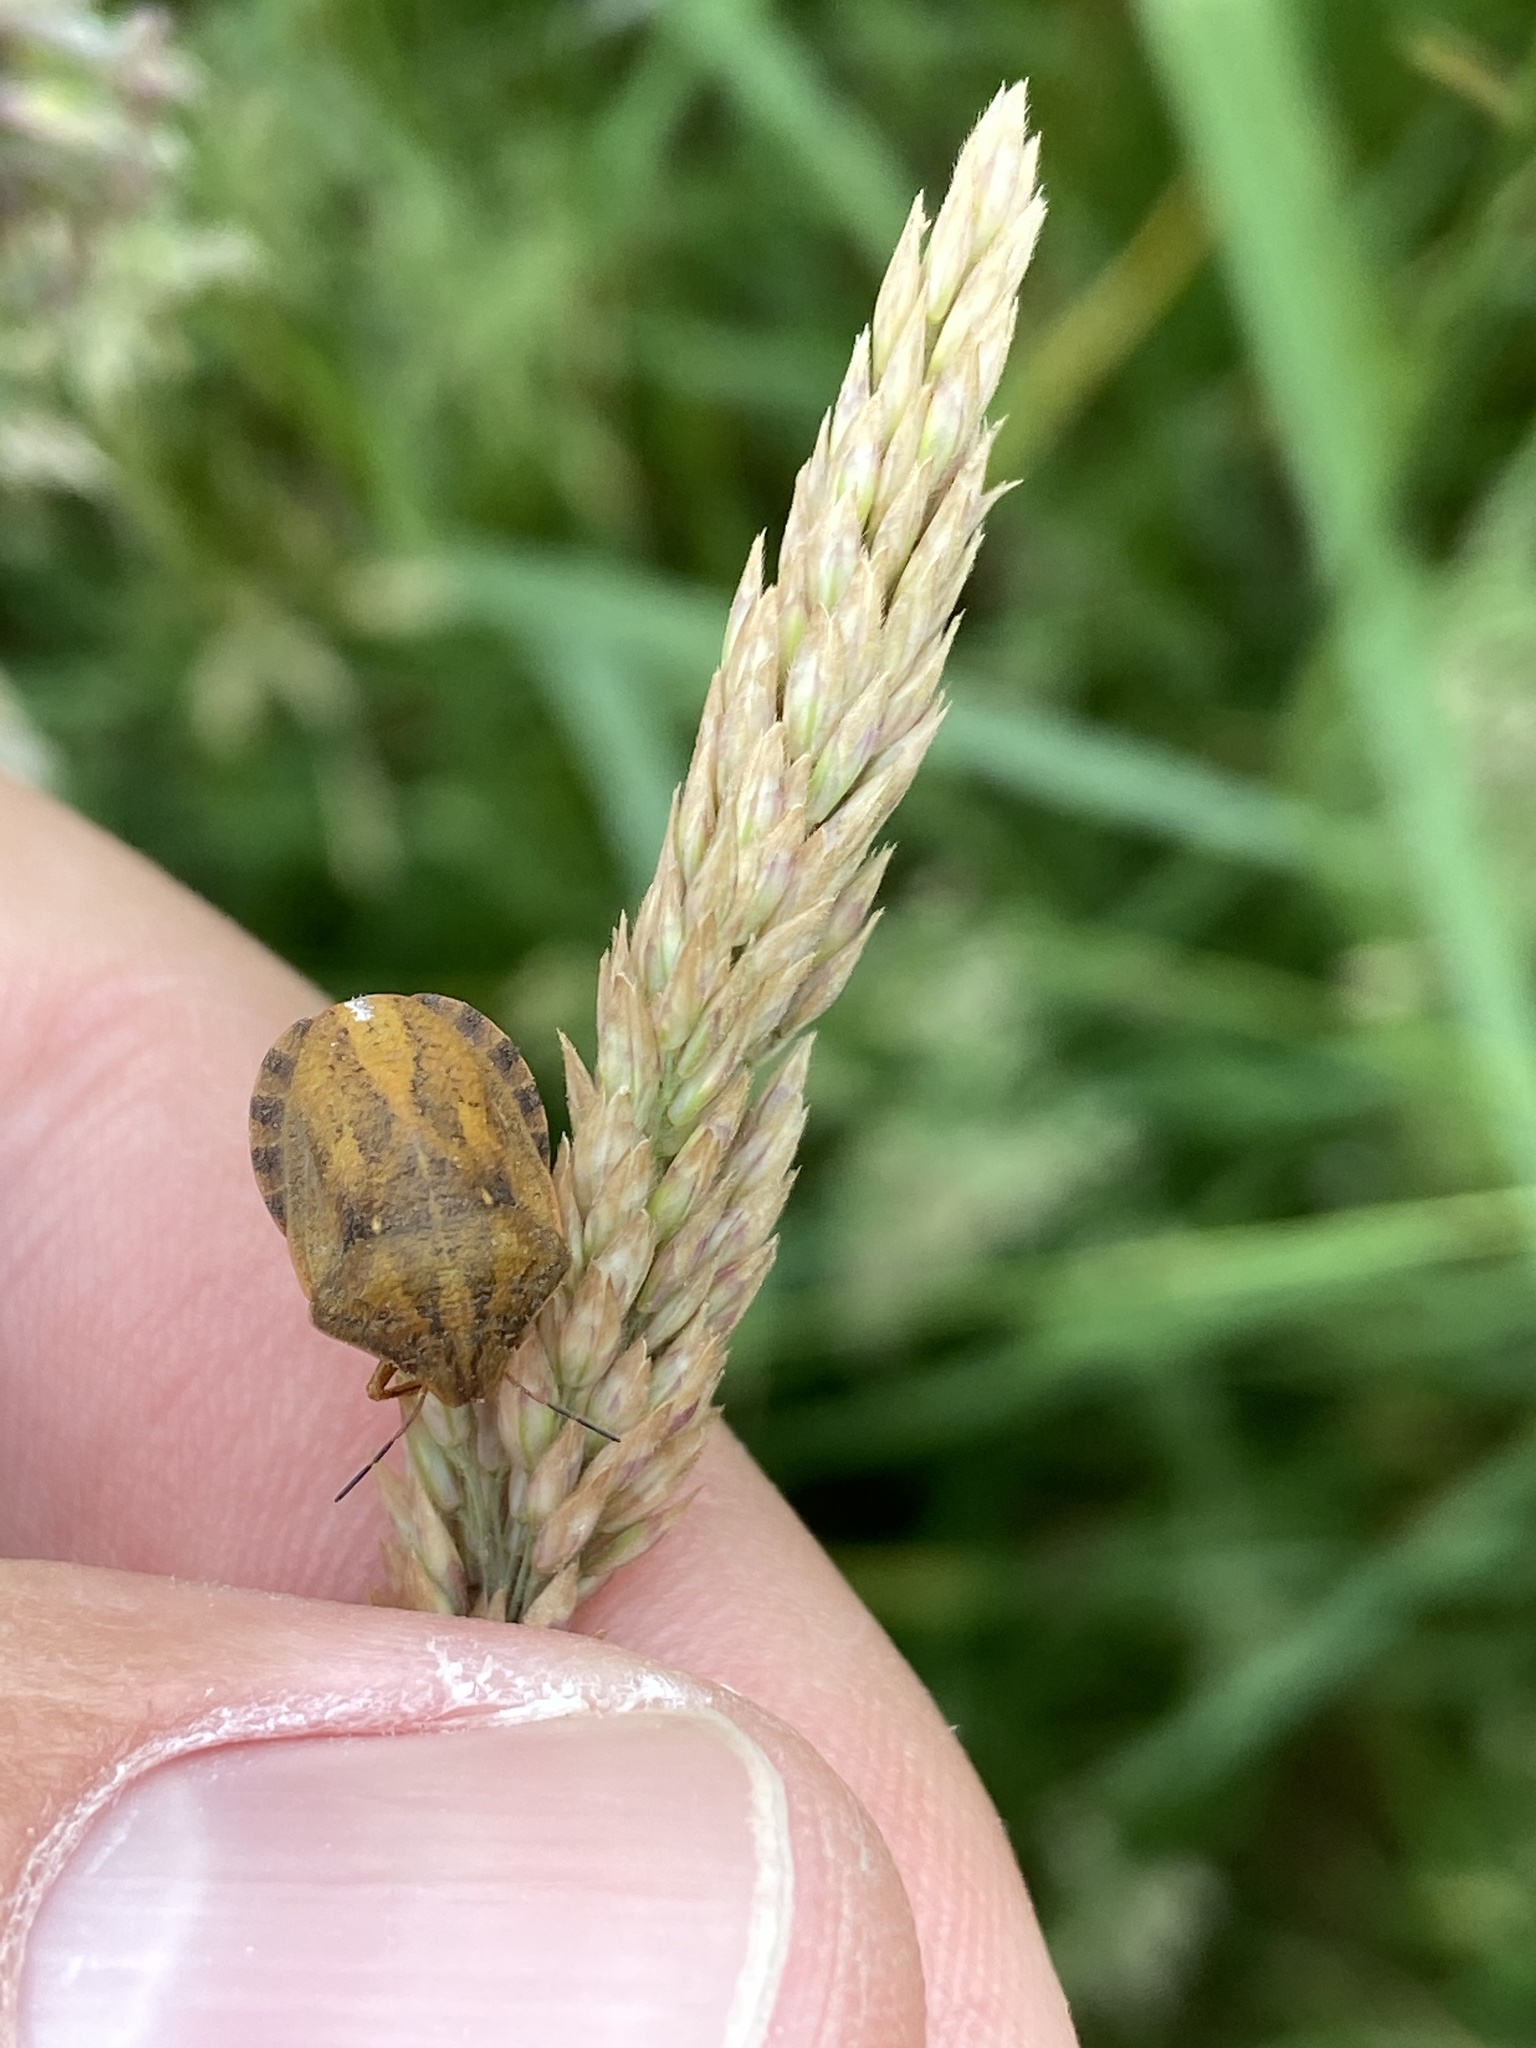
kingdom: Animalia
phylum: Arthropoda
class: Insecta
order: Hemiptera
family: Scutelleridae
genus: Eurygaster
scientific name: Eurygaster testudinaria
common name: Tortoise bug
